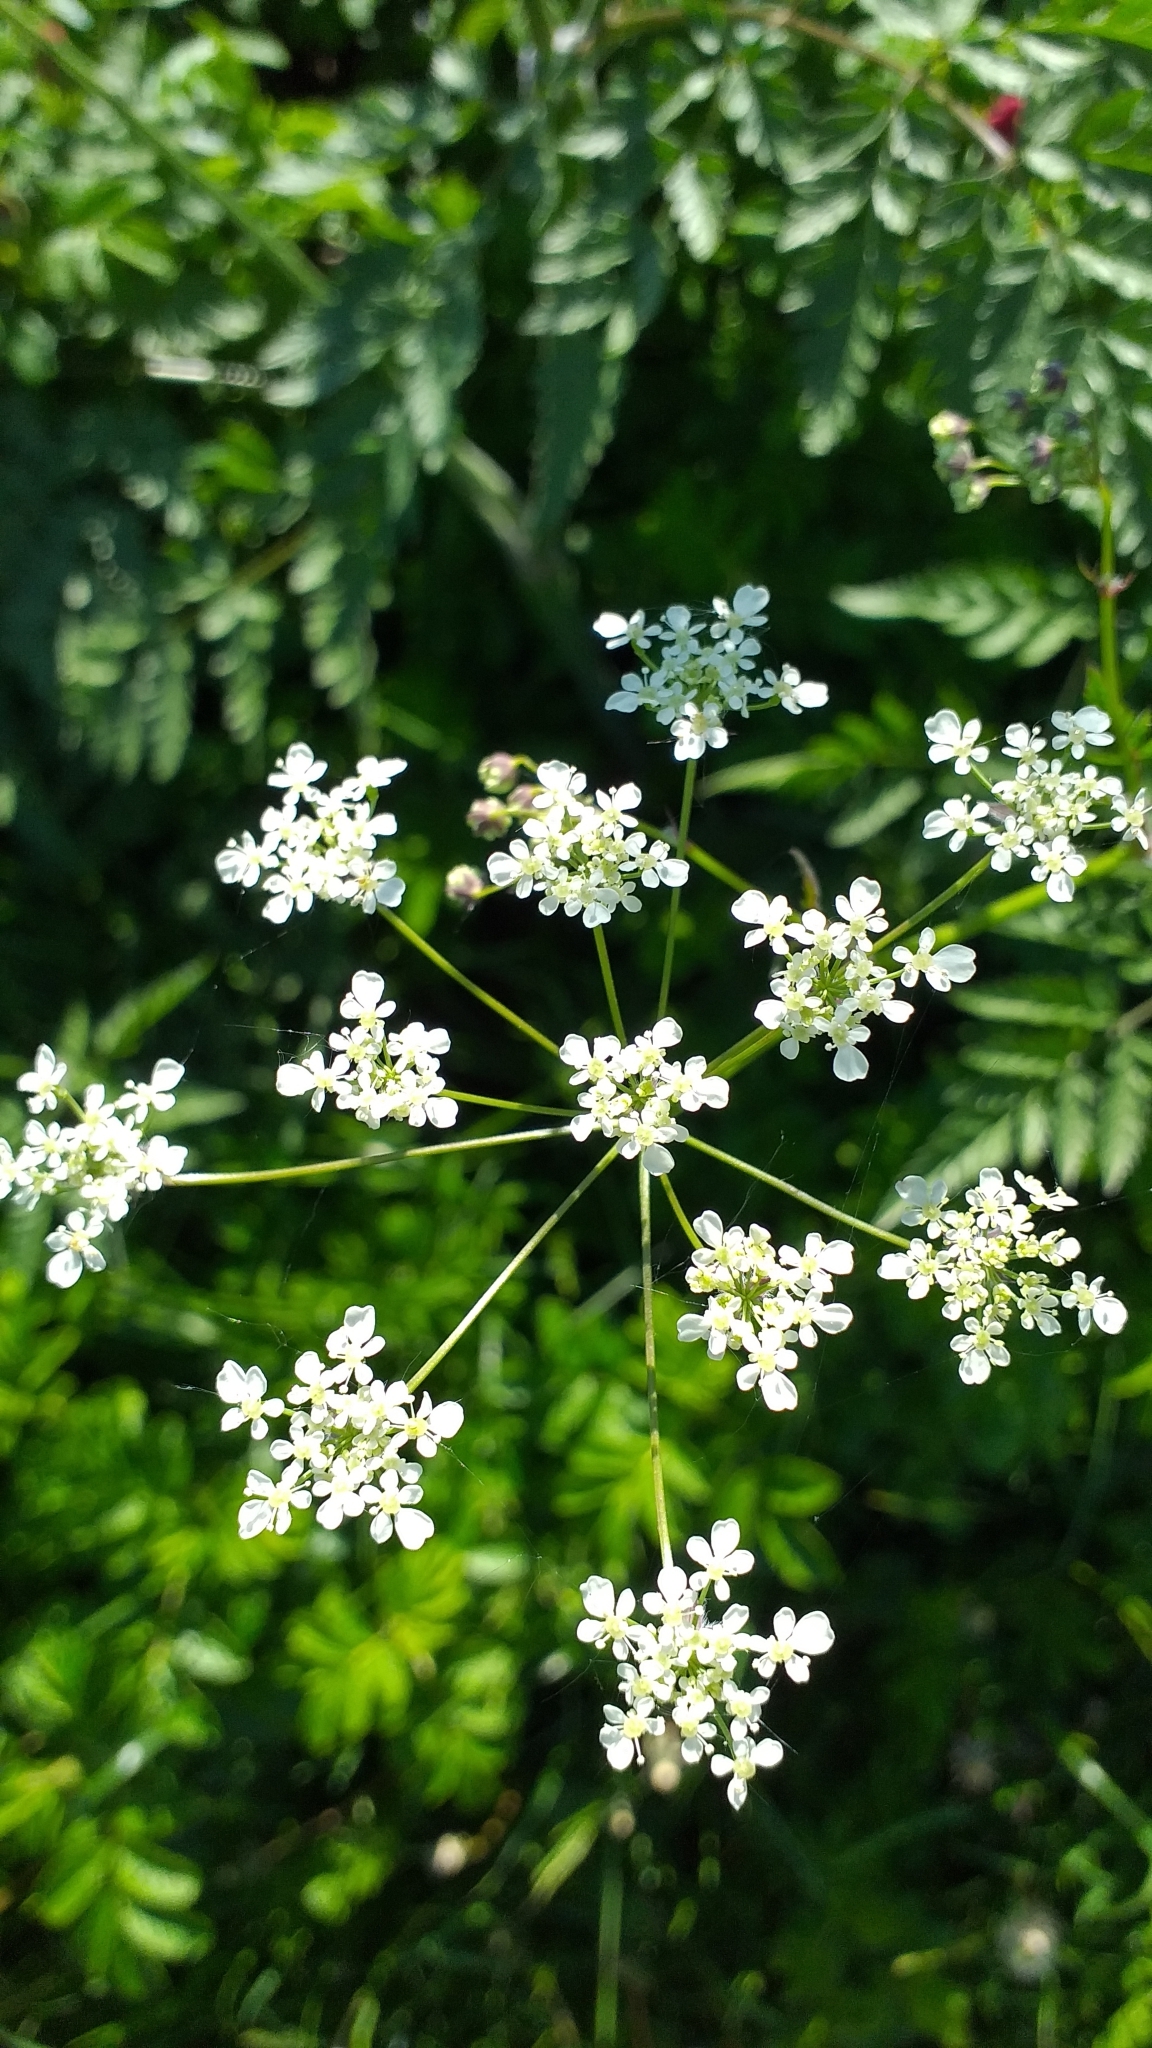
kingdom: Plantae
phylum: Tracheophyta
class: Magnoliopsida
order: Apiales
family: Apiaceae
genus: Anthriscus
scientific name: Anthriscus sylvestris
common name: Cow parsley
